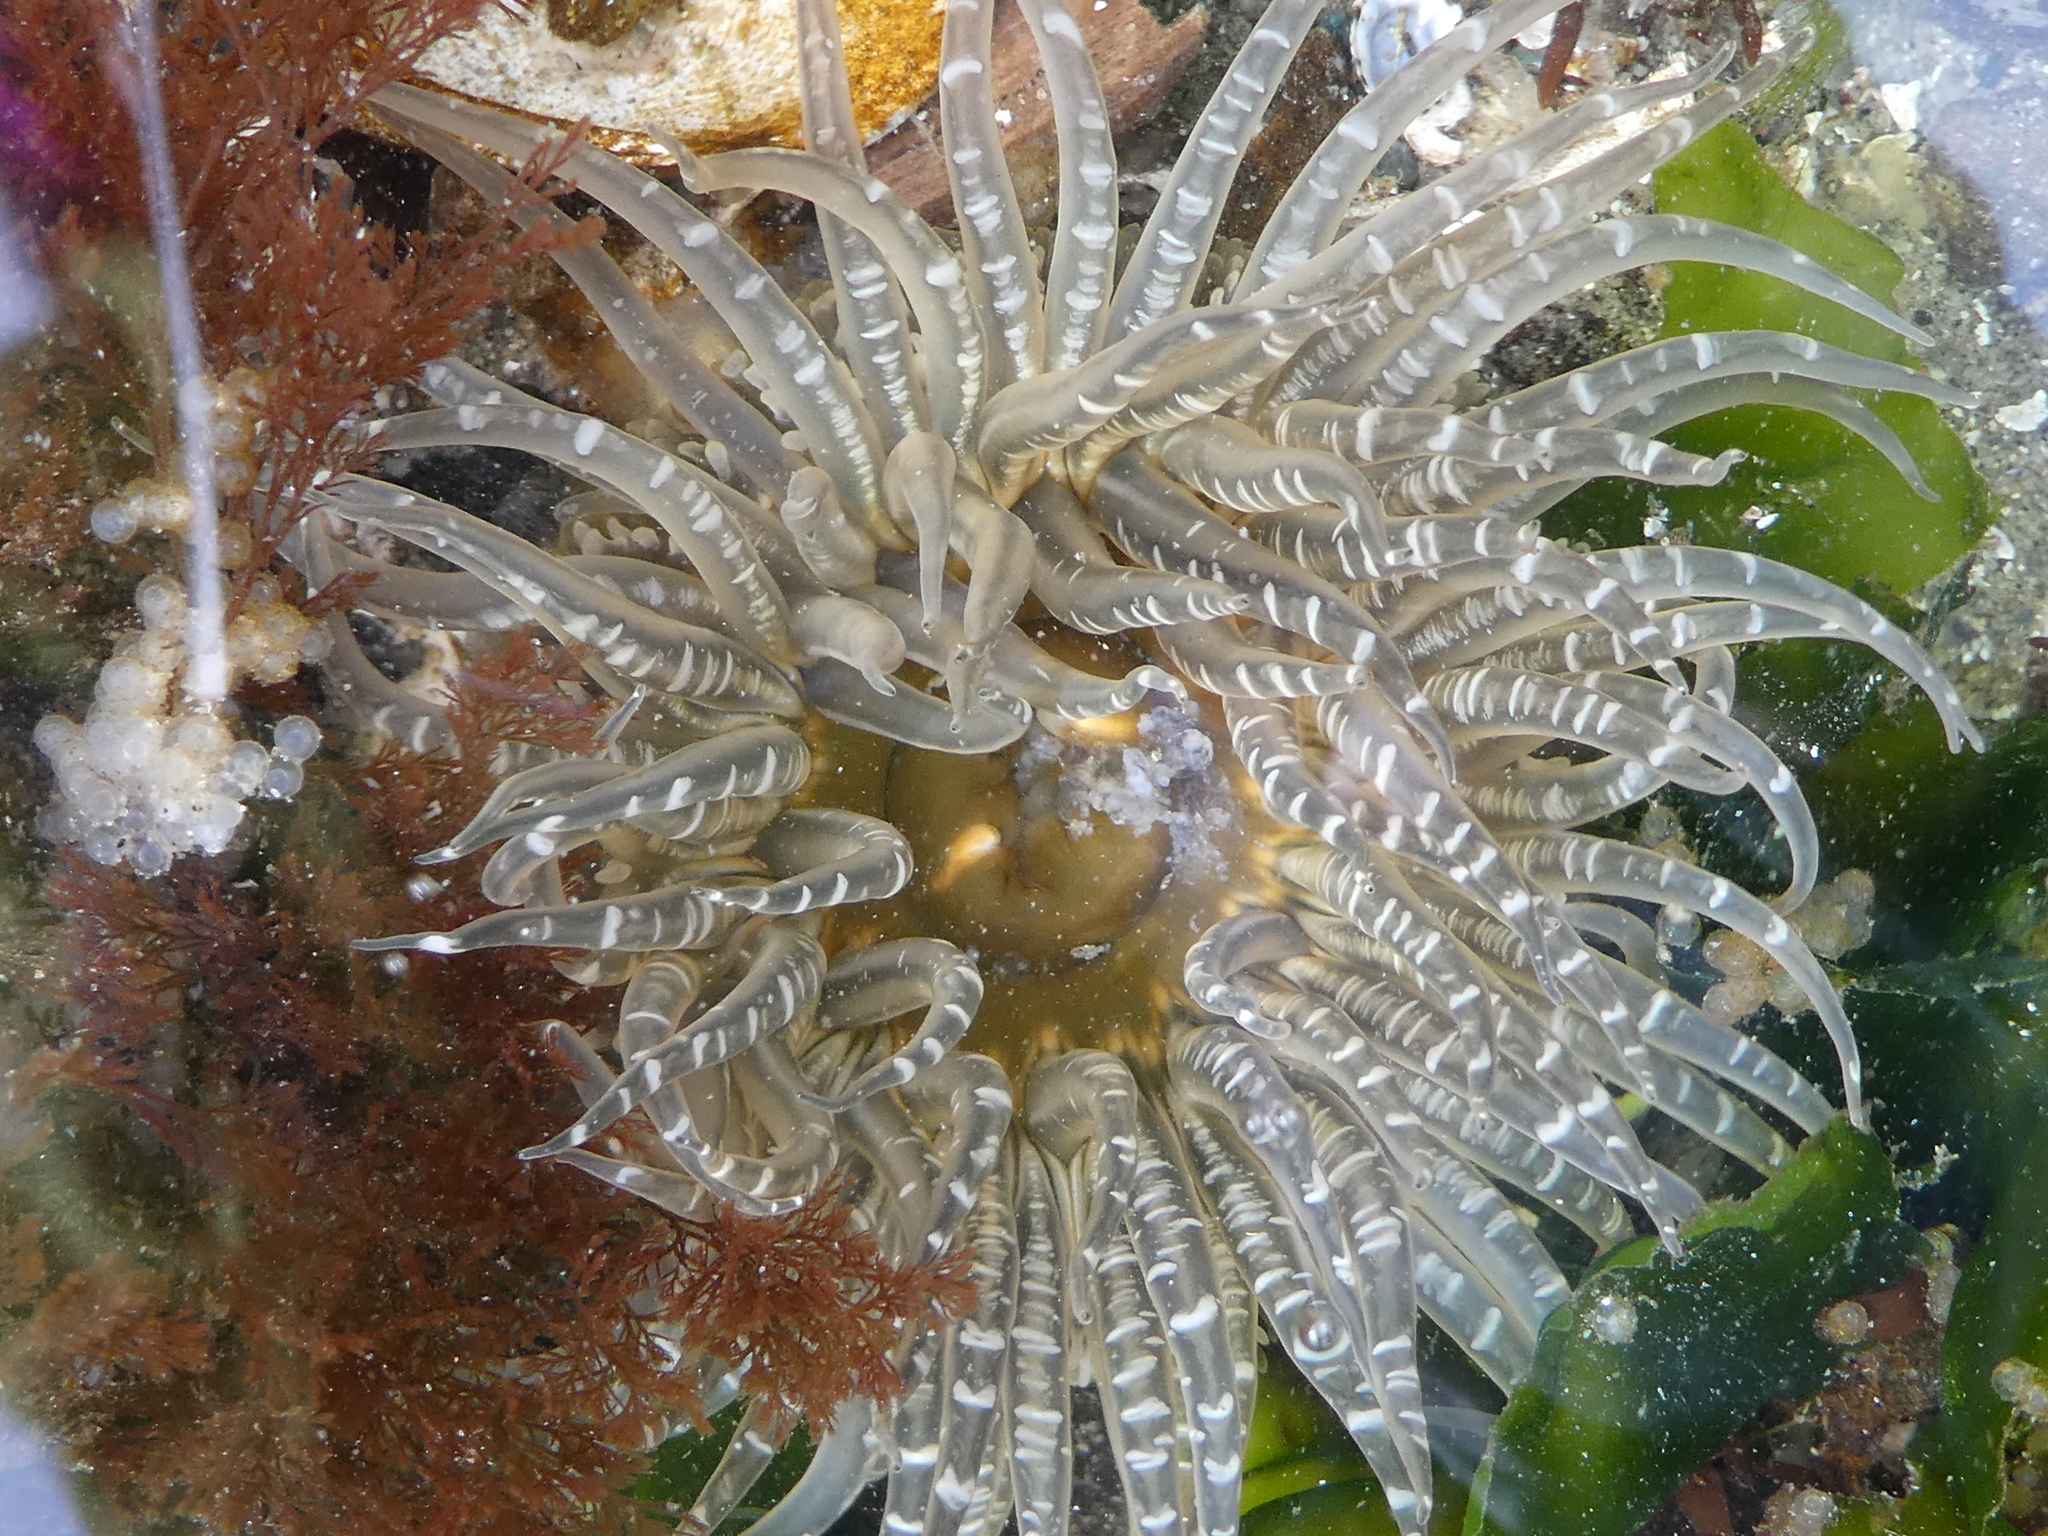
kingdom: Animalia
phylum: Cnidaria
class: Anthozoa
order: Actiniaria
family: Actiniidae
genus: Anthopleura
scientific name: Anthopleura artemisia
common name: Buried sea anemone
